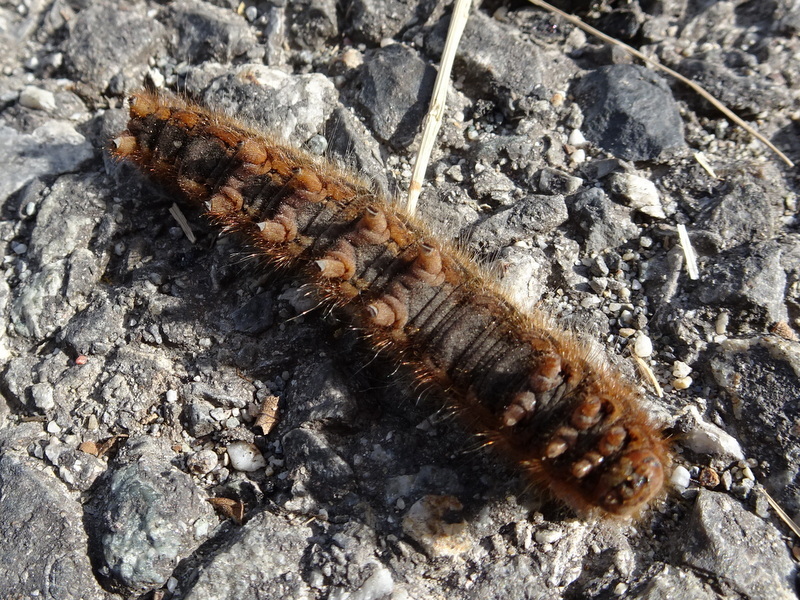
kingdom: Animalia
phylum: Arthropoda
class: Insecta
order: Lepidoptera
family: Lasiocampidae
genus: Lasiocampa
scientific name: Lasiocampa quercus
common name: Oak eggar
